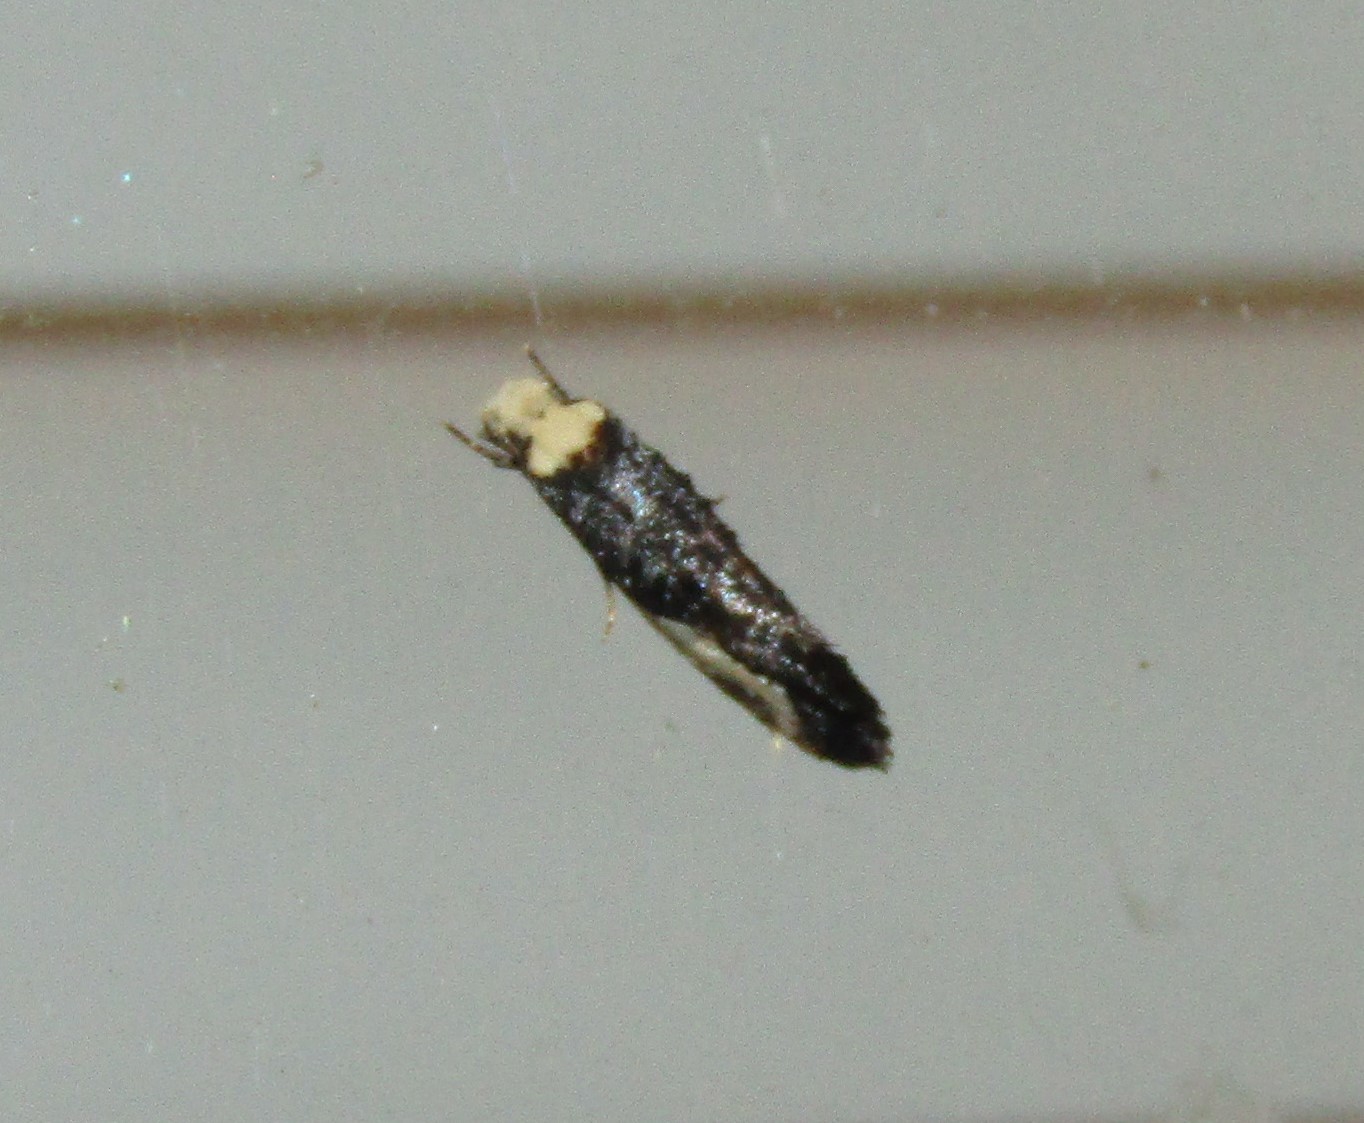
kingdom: Animalia
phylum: Arthropoda
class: Insecta
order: Lepidoptera
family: Tineidae
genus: Monopis
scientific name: Monopis longella
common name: Pavlovski's monopis moth
